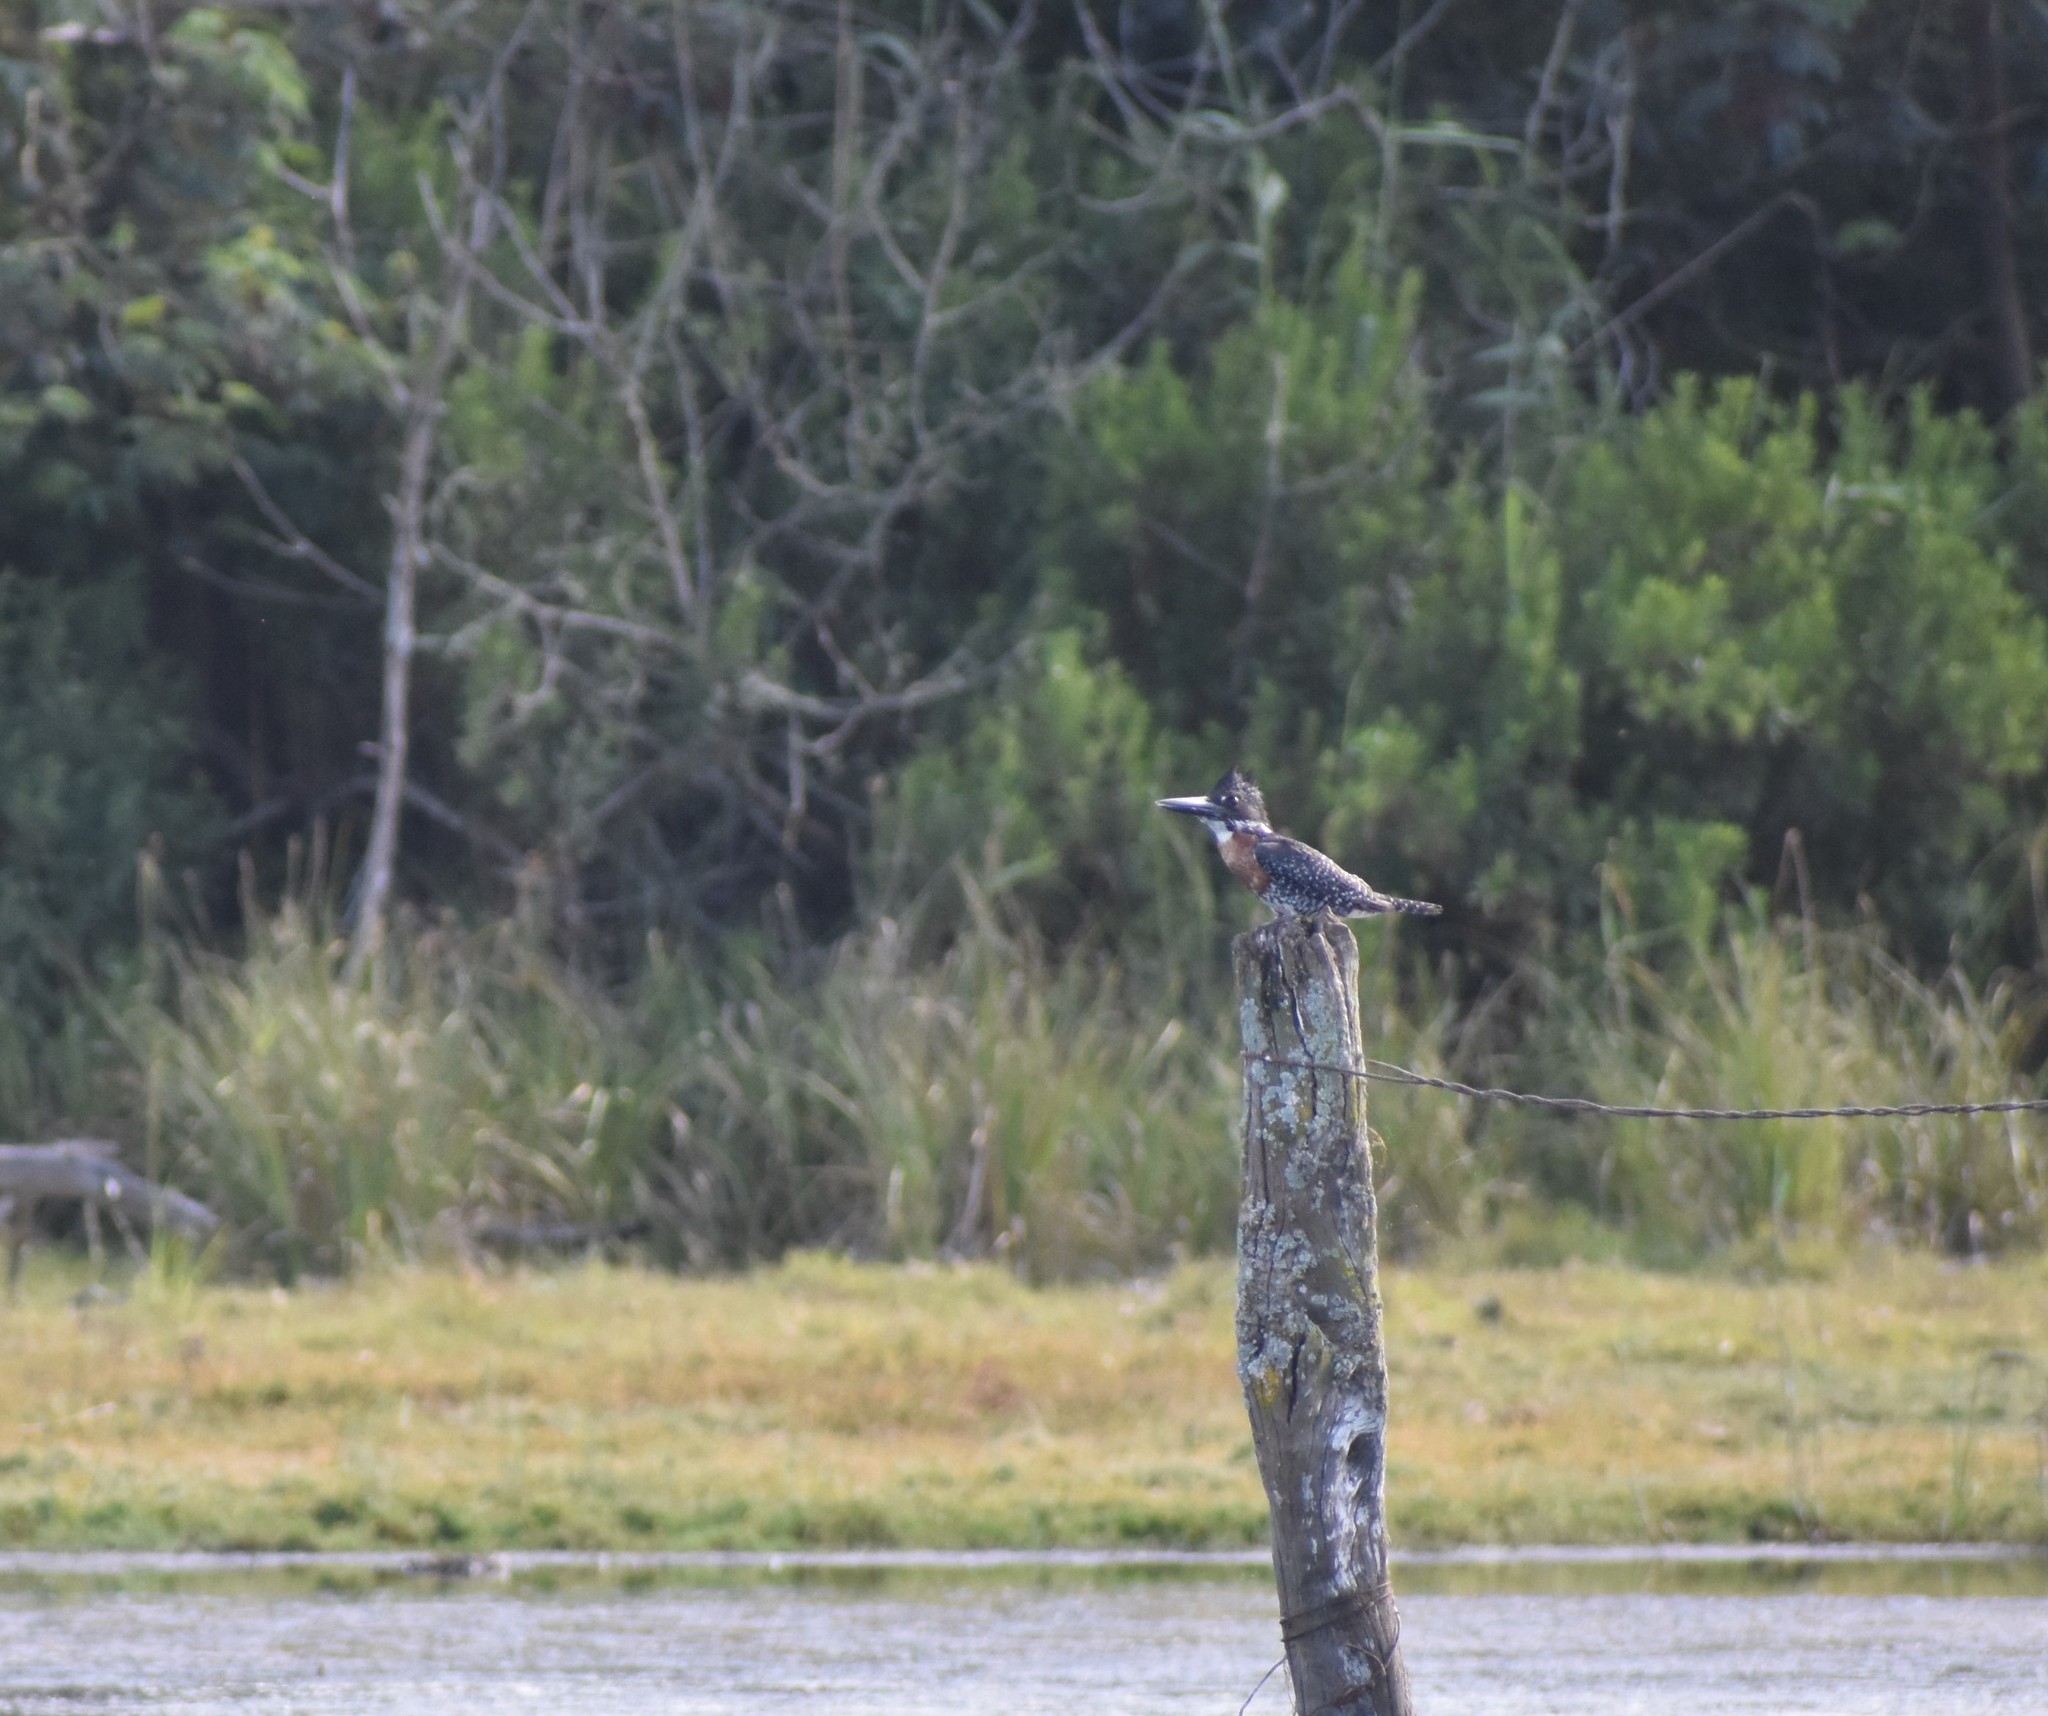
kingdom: Animalia
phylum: Chordata
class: Aves
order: Coraciiformes
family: Alcedinidae
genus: Megaceryle
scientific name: Megaceryle maxima
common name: Giant kingfisher
